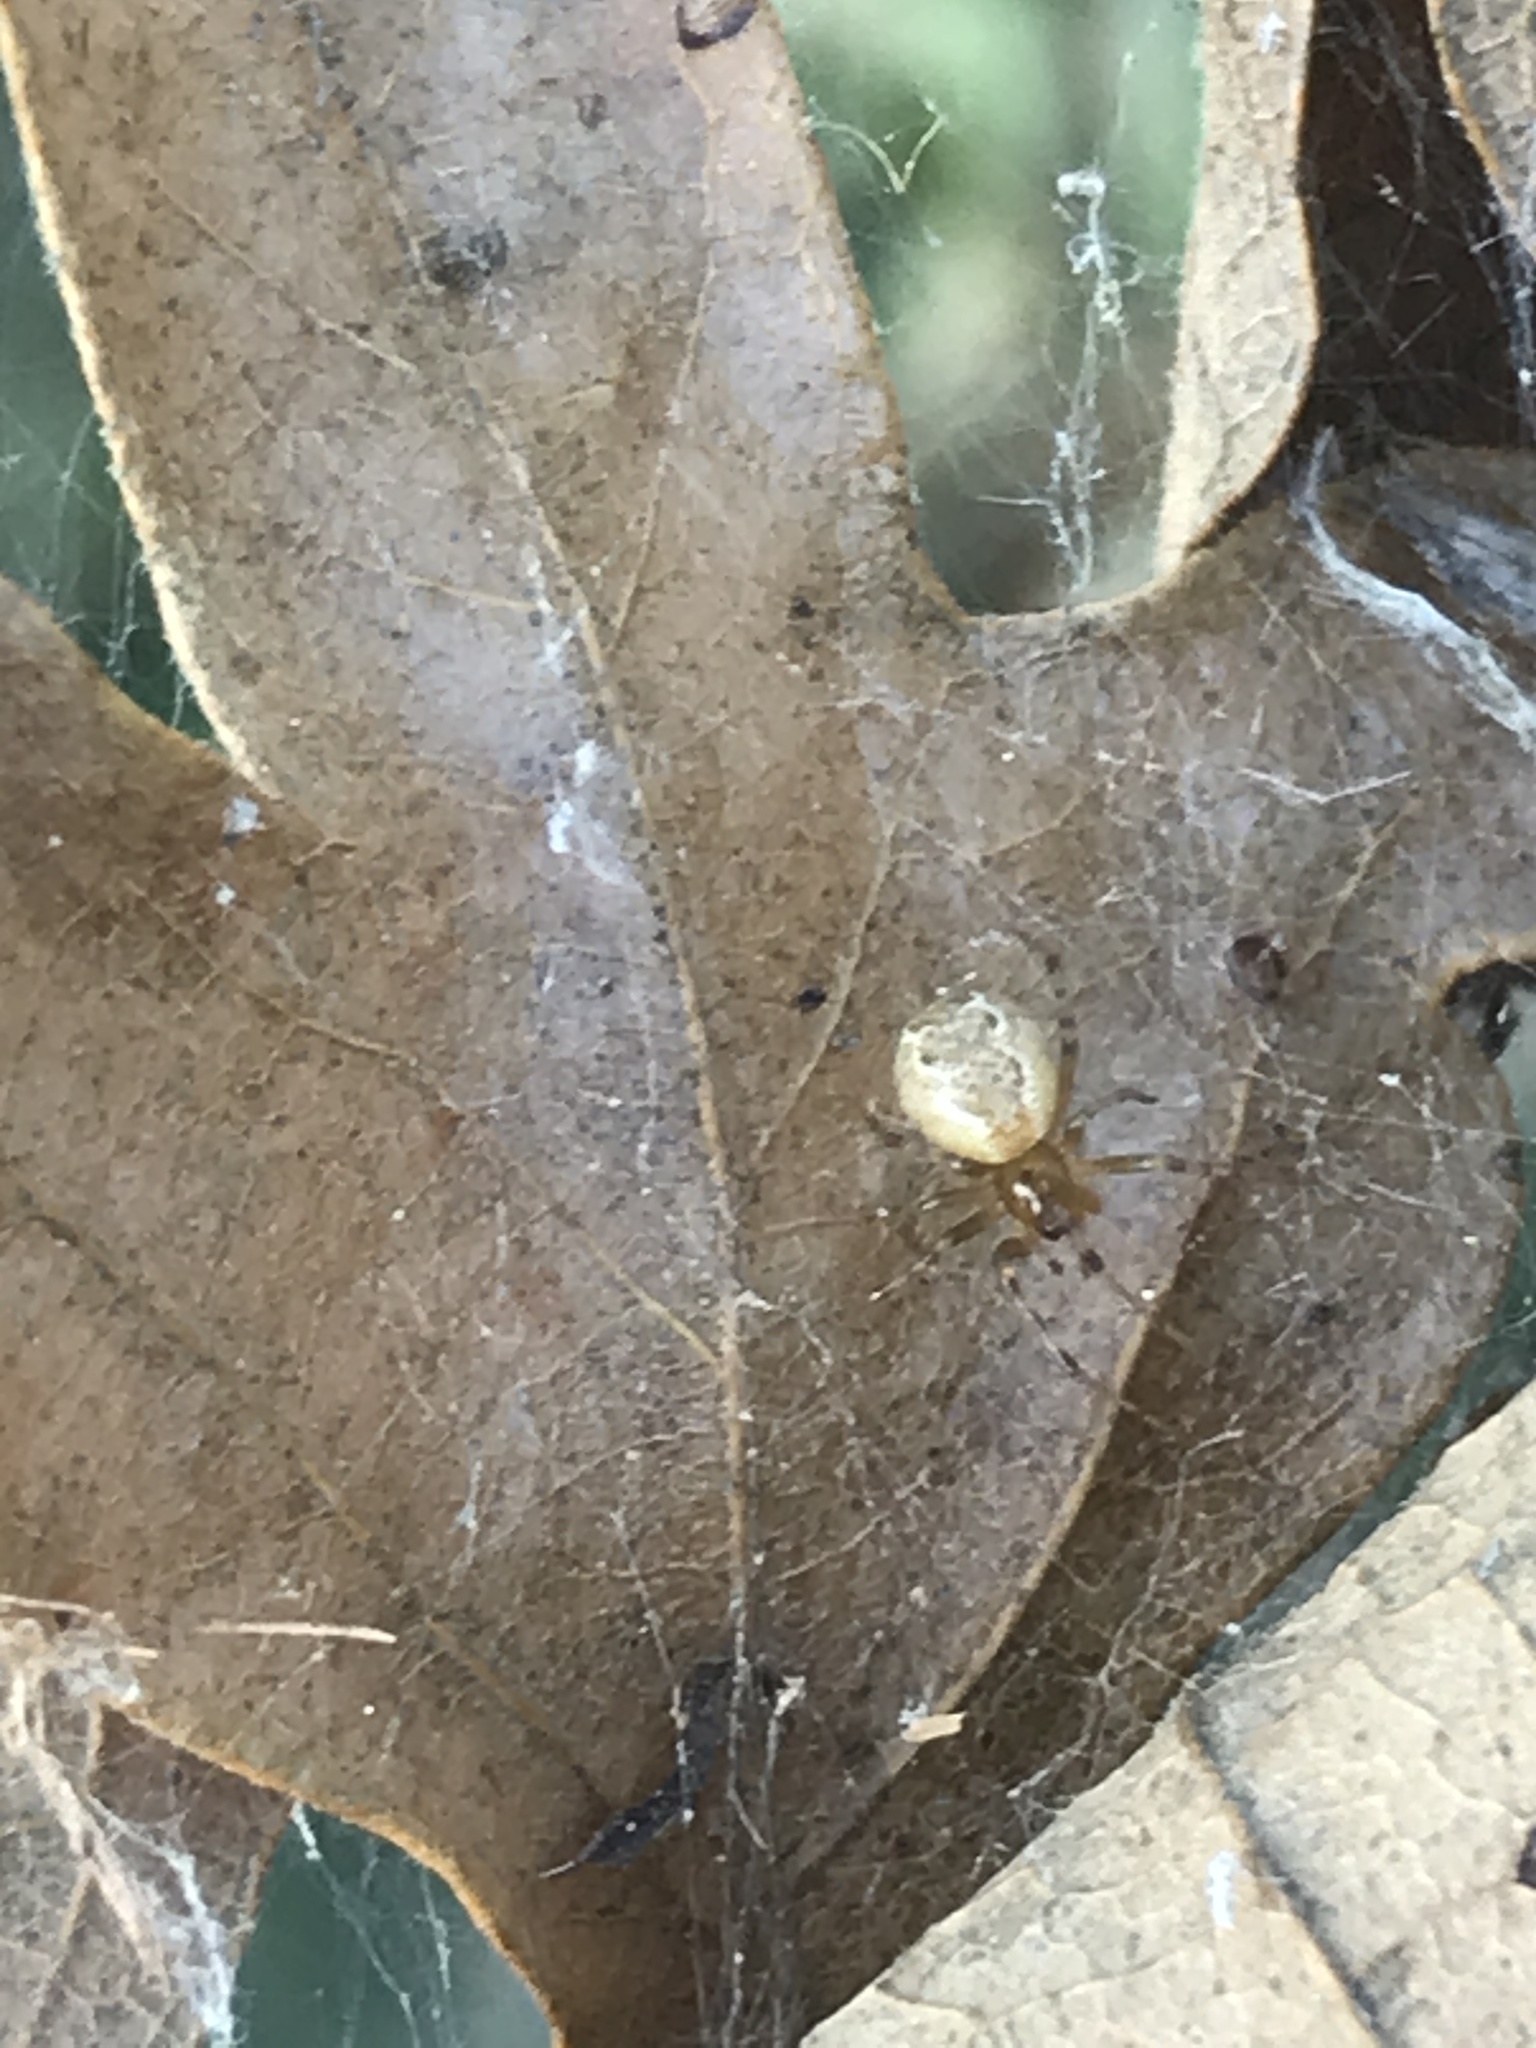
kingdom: Animalia
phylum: Arthropoda
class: Arachnida
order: Araneae
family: Theridiidae
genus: Anelosimus
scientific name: Anelosimus studiosus
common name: Cobweb spiders
